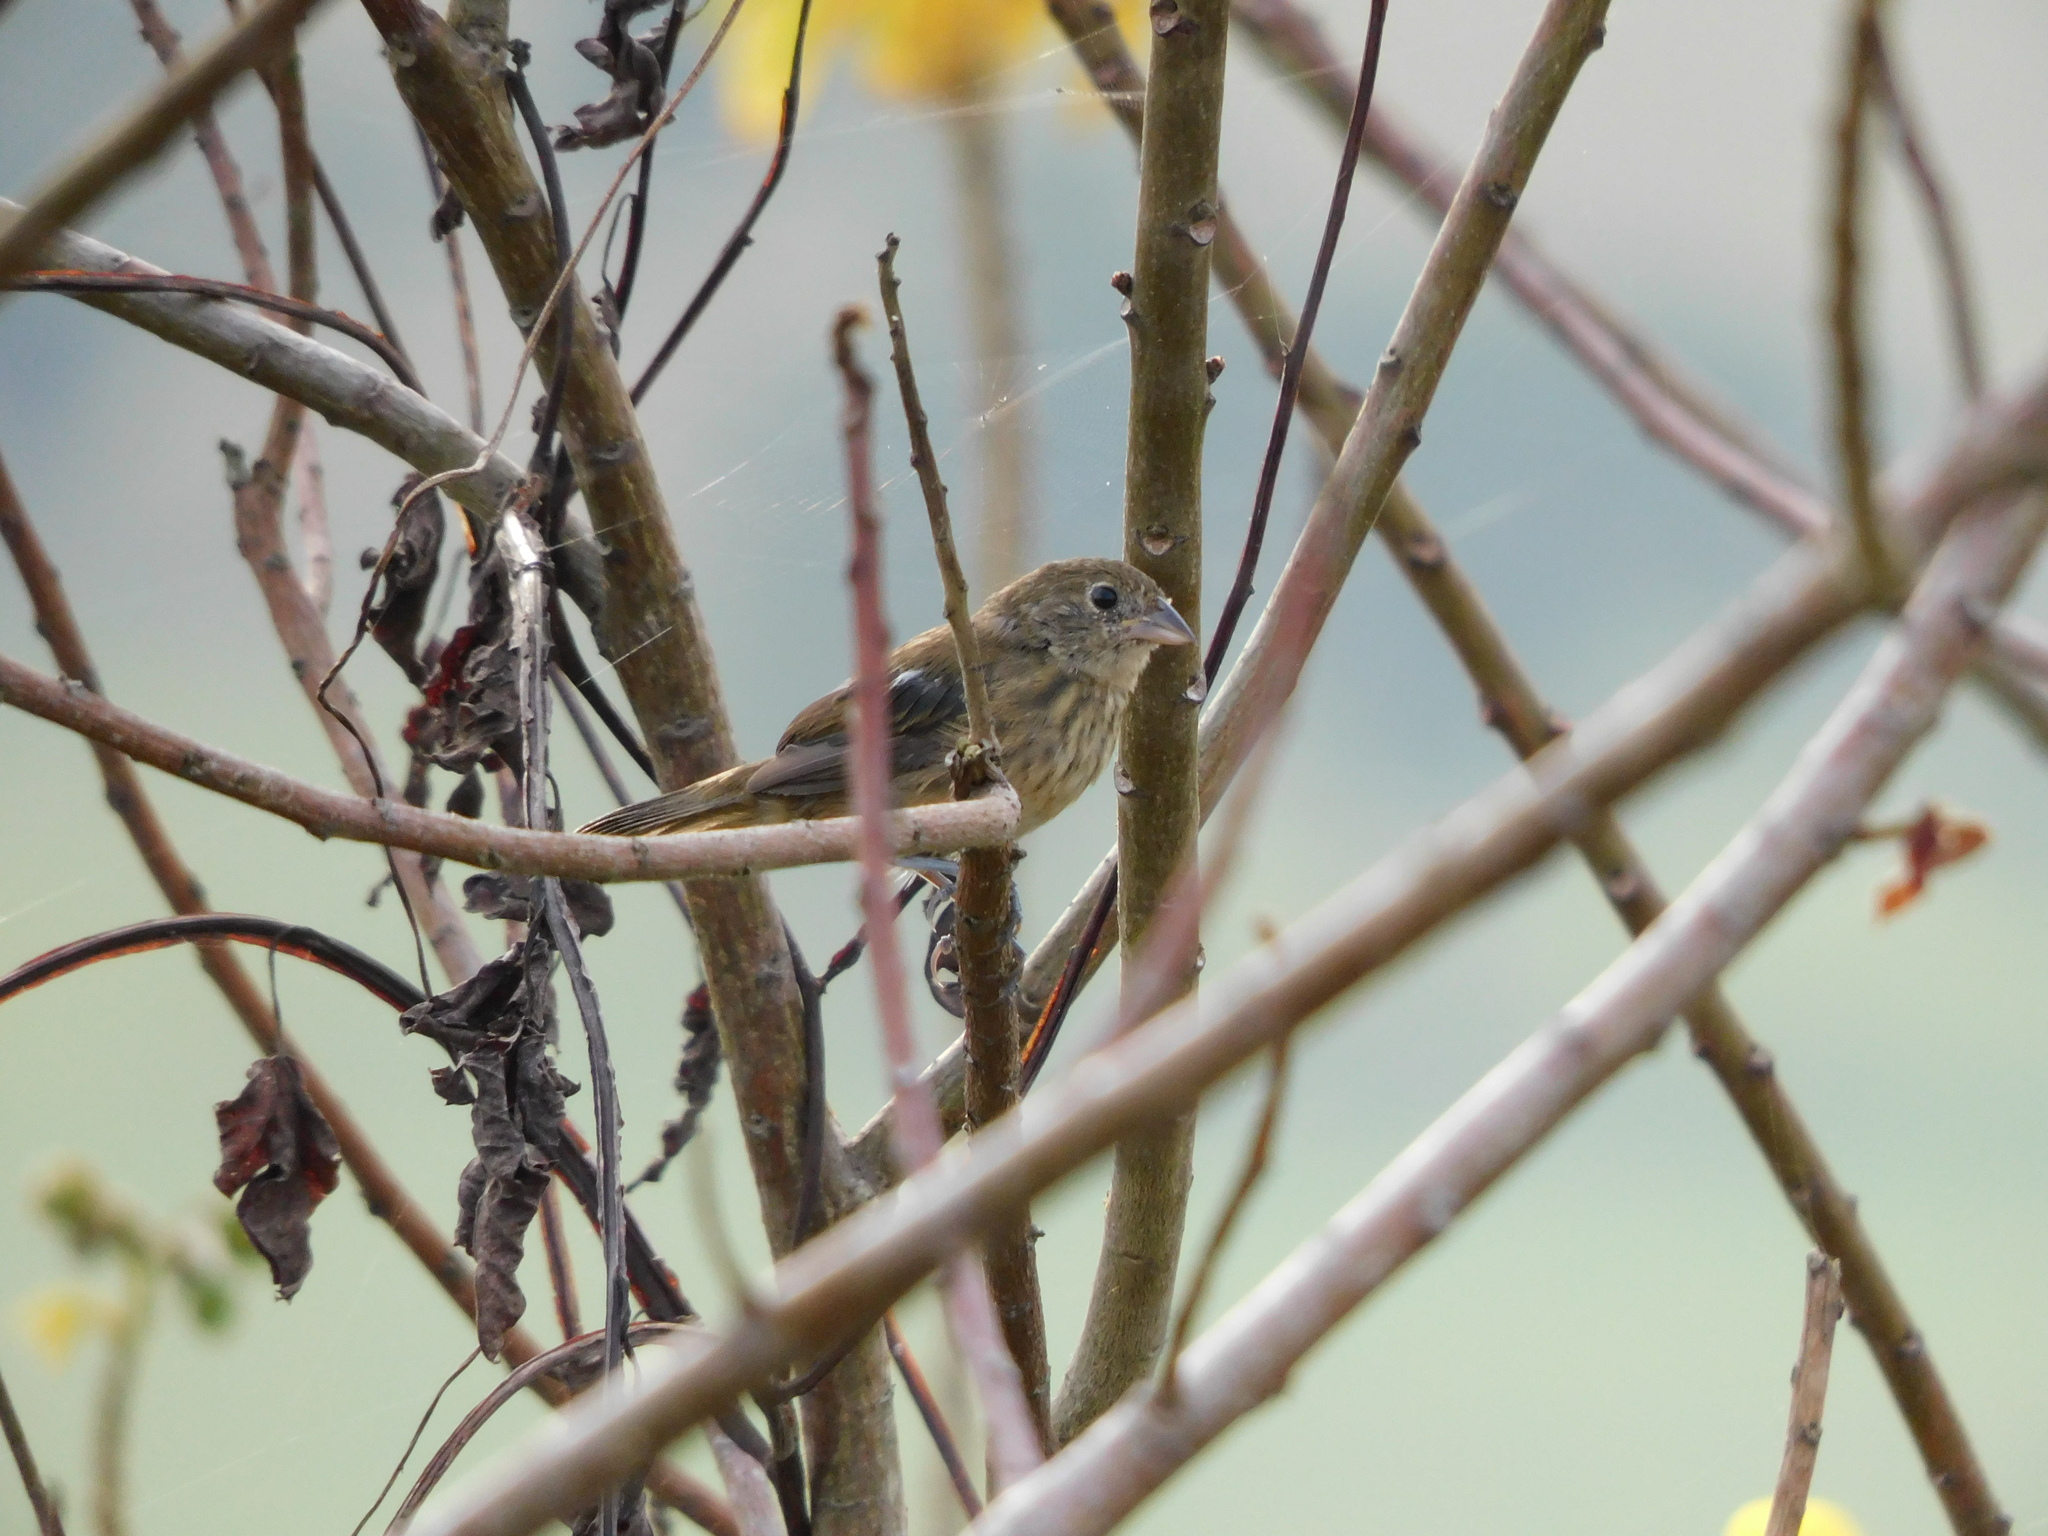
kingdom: Animalia
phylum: Chordata
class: Aves
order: Passeriformes
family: Thraupidae
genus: Volatinia
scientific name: Volatinia jacarina
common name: Blue-black grassquit
